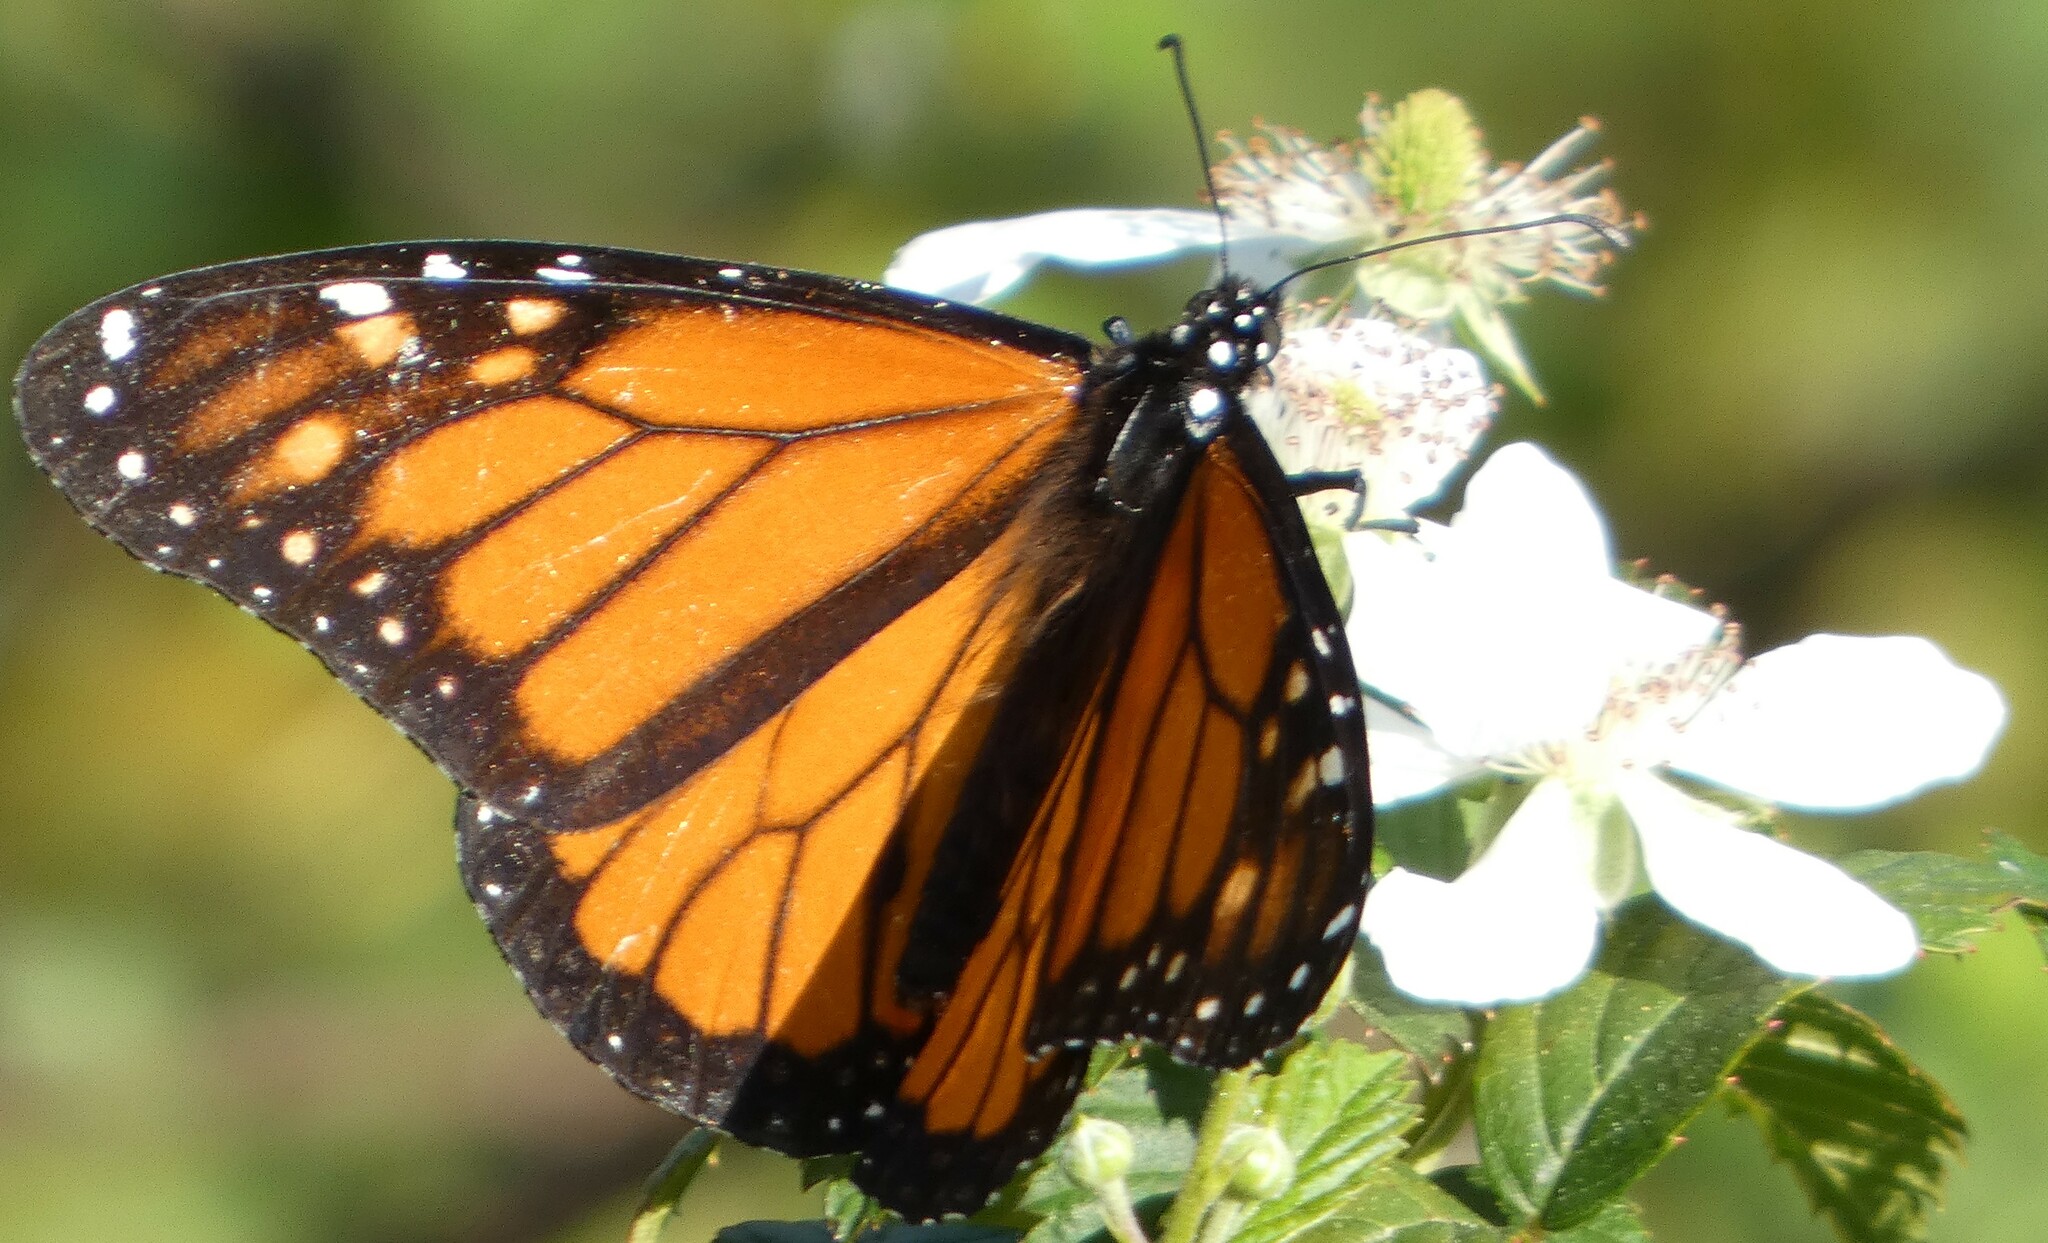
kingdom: Animalia
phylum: Arthropoda
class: Insecta
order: Lepidoptera
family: Nymphalidae
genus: Danaus
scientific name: Danaus plexippus
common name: Monarch
